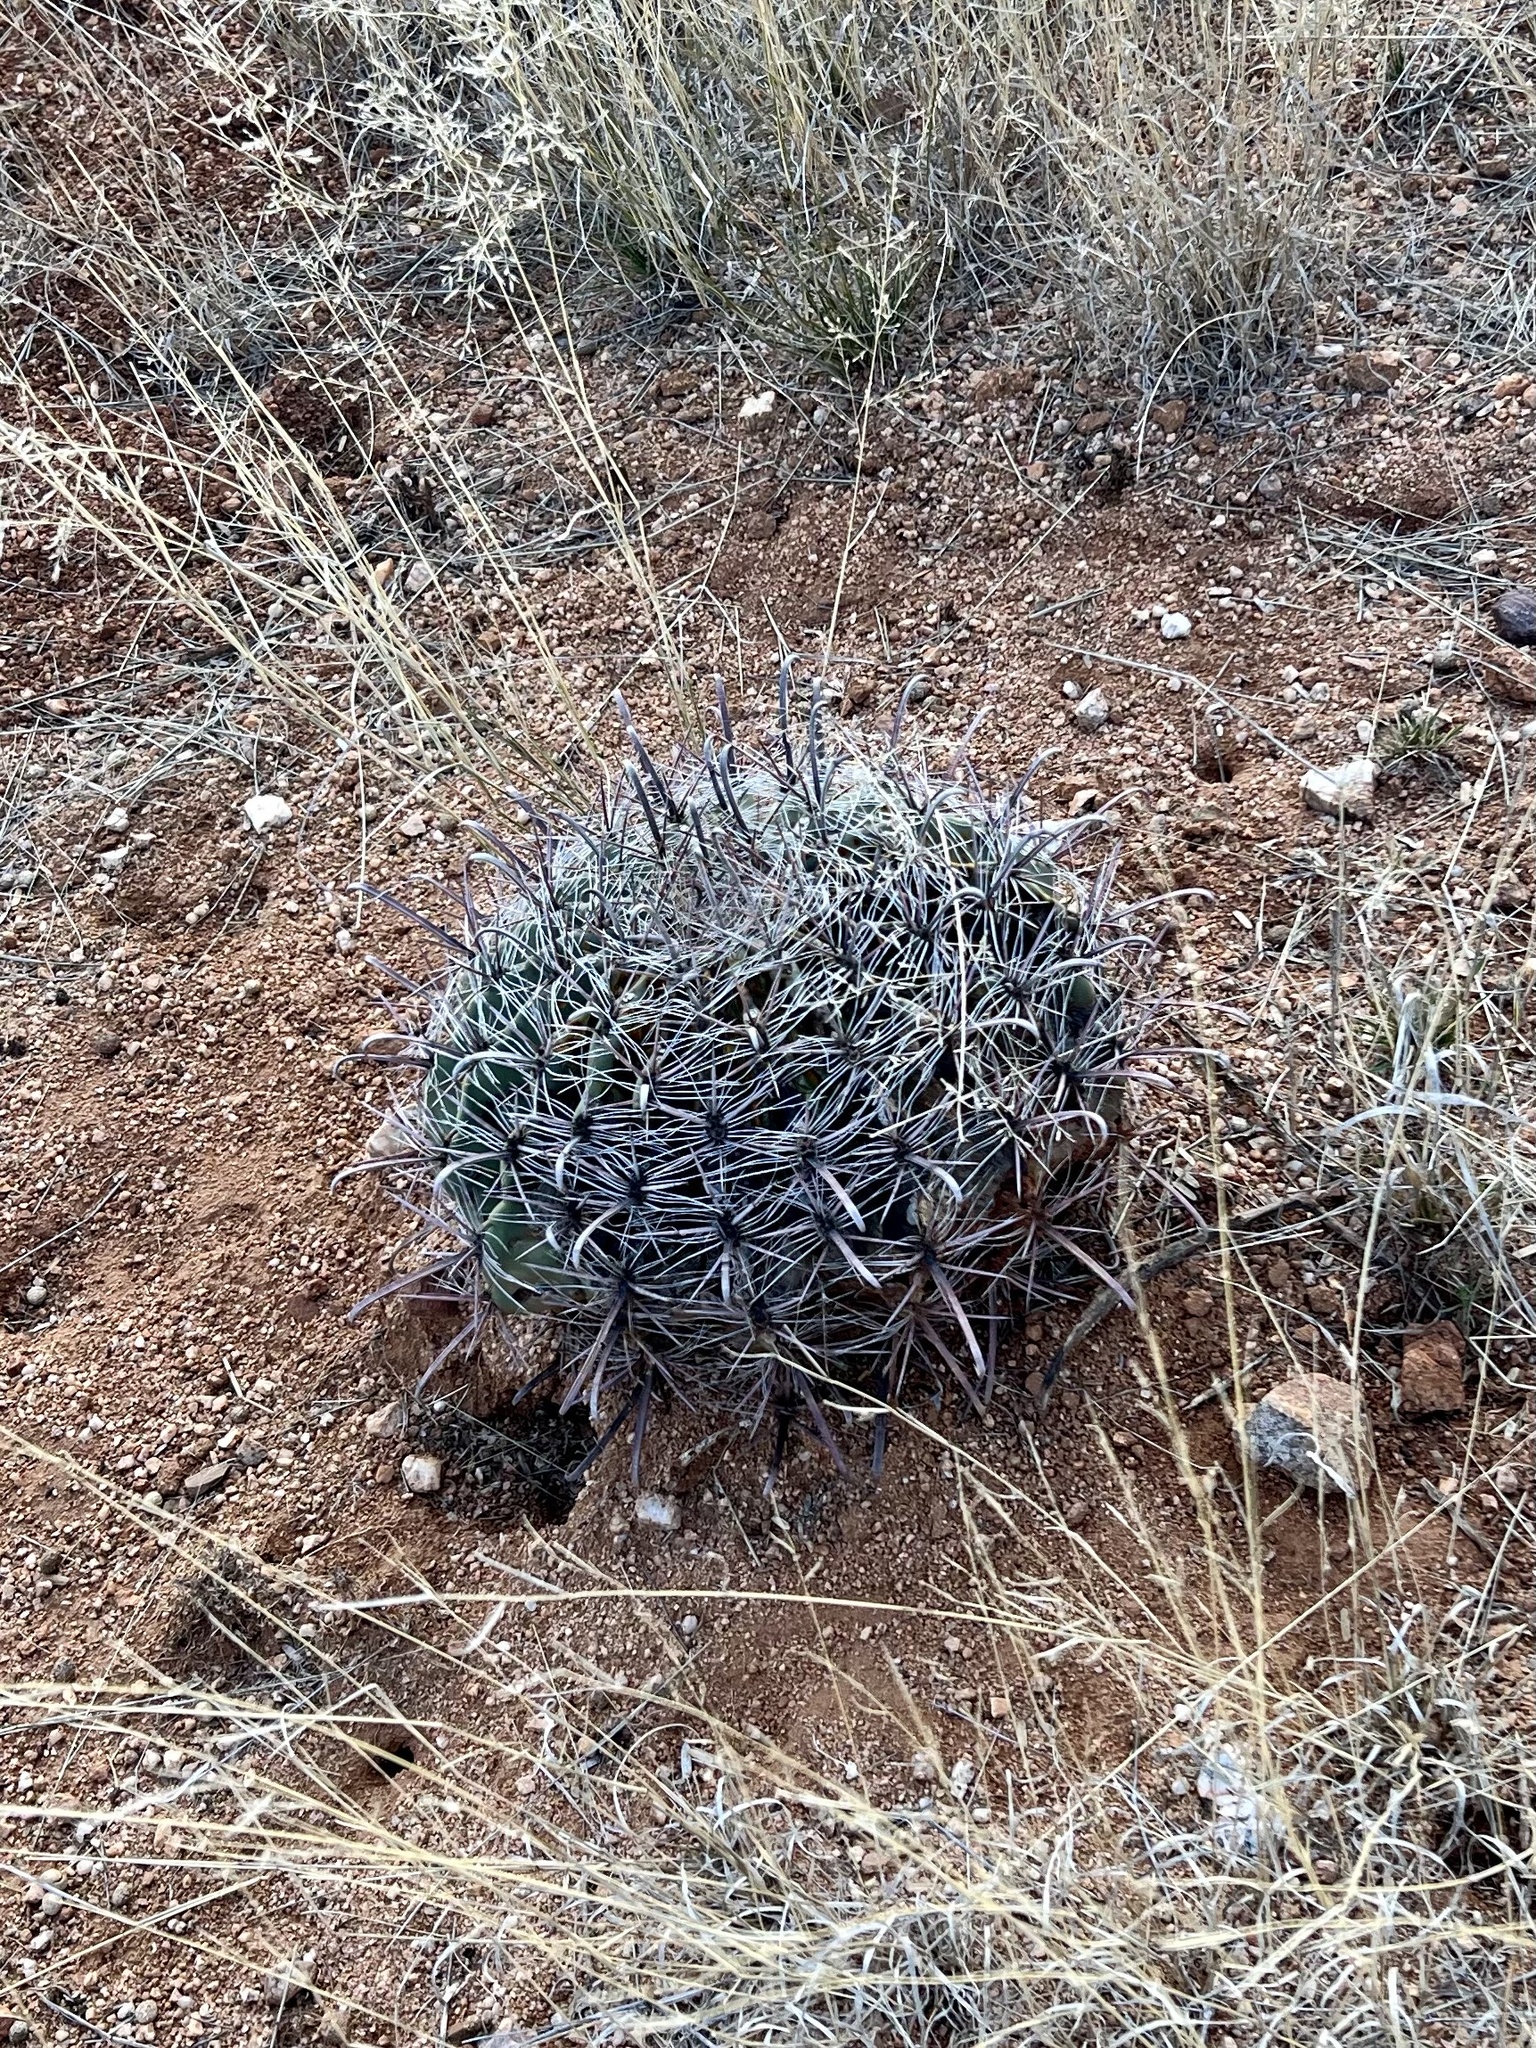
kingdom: Plantae
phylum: Tracheophyta
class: Magnoliopsida
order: Caryophyllales
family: Cactaceae
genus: Ferocactus
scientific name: Ferocactus wislizeni
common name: Candy barrel cactus
